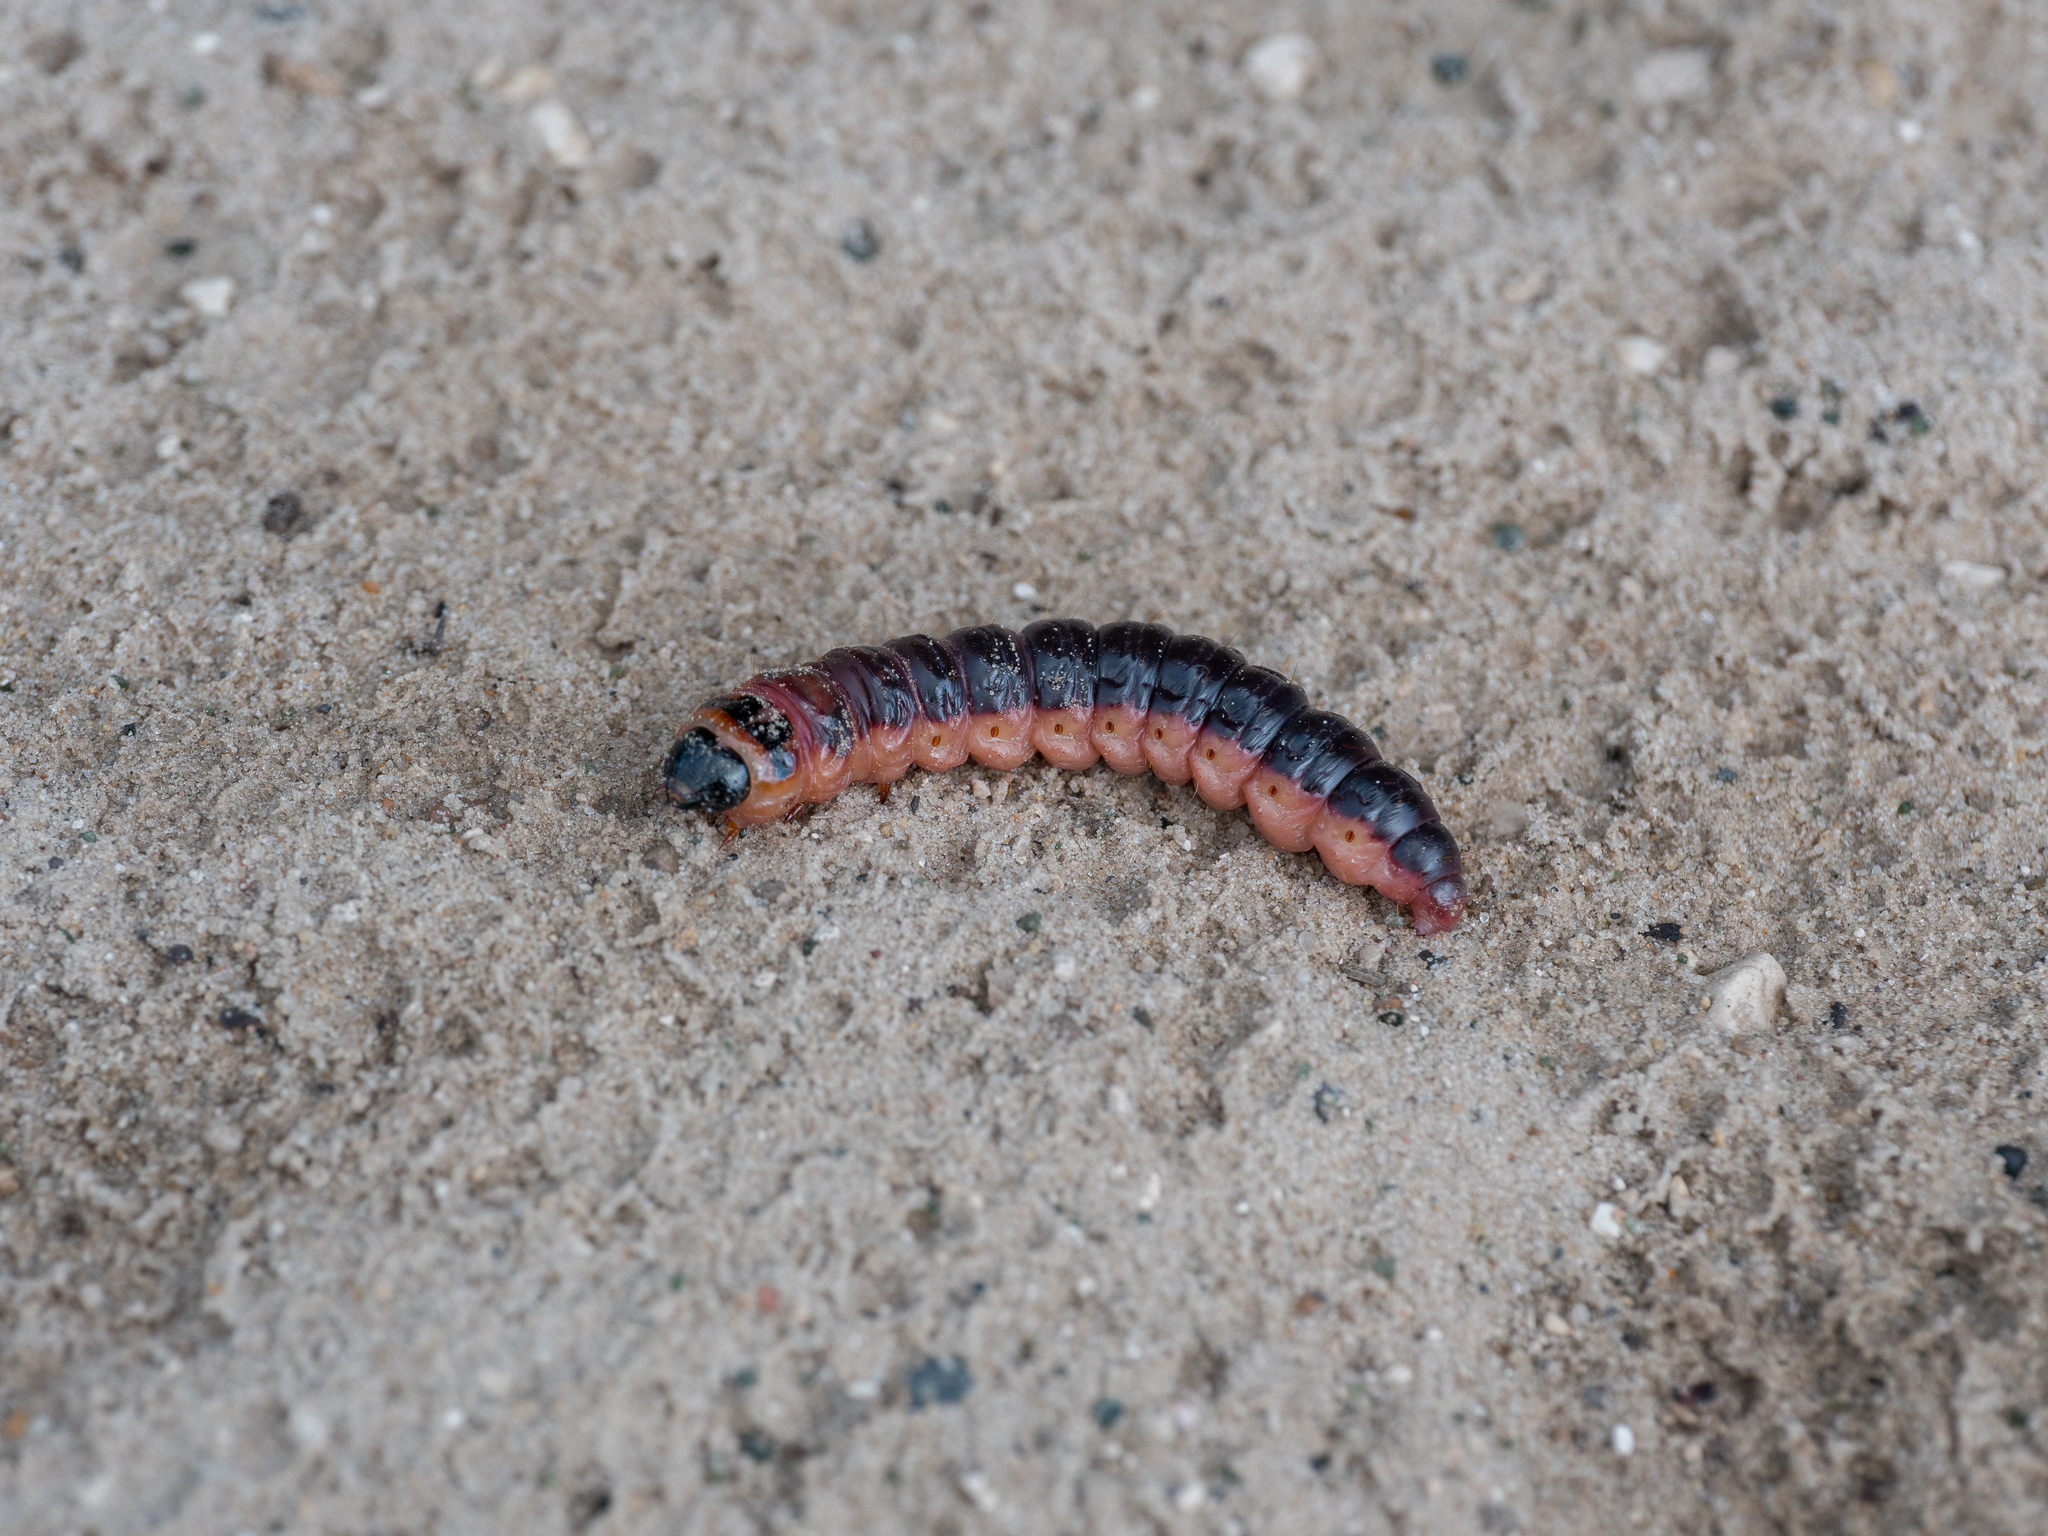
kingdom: Animalia
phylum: Arthropoda
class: Insecta
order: Lepidoptera
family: Cossidae
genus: Cossus
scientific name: Cossus cossus
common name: Goat moth
